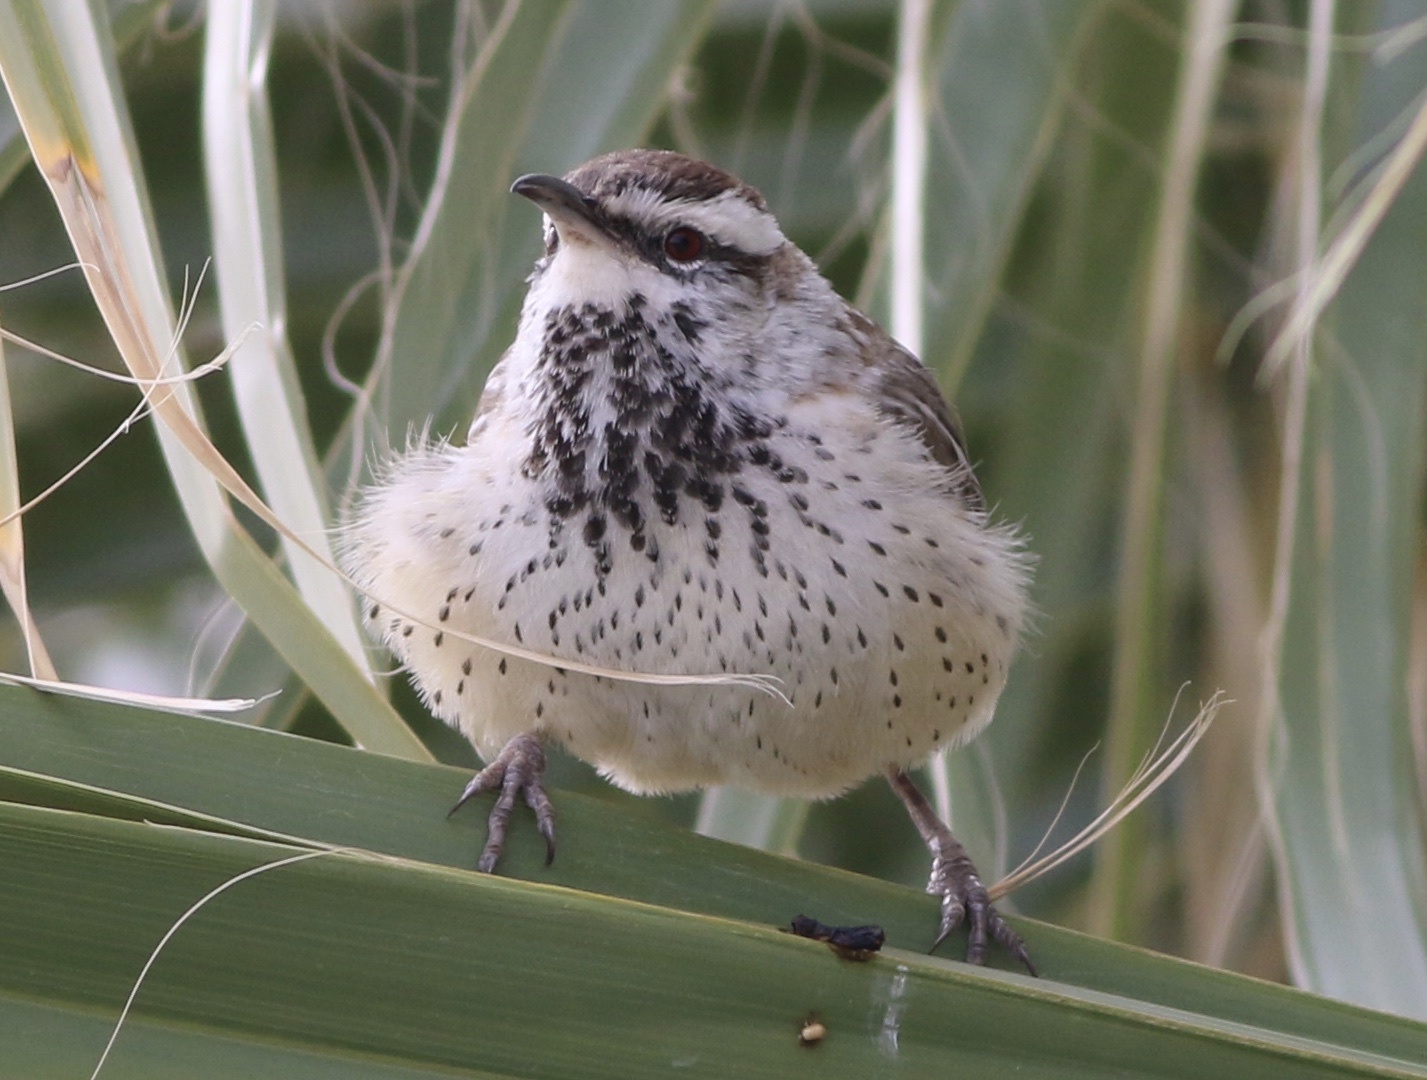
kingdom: Animalia
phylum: Chordata
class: Aves
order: Passeriformes
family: Troglodytidae
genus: Campylorhynchus
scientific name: Campylorhynchus brunneicapillus
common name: Cactus wren
